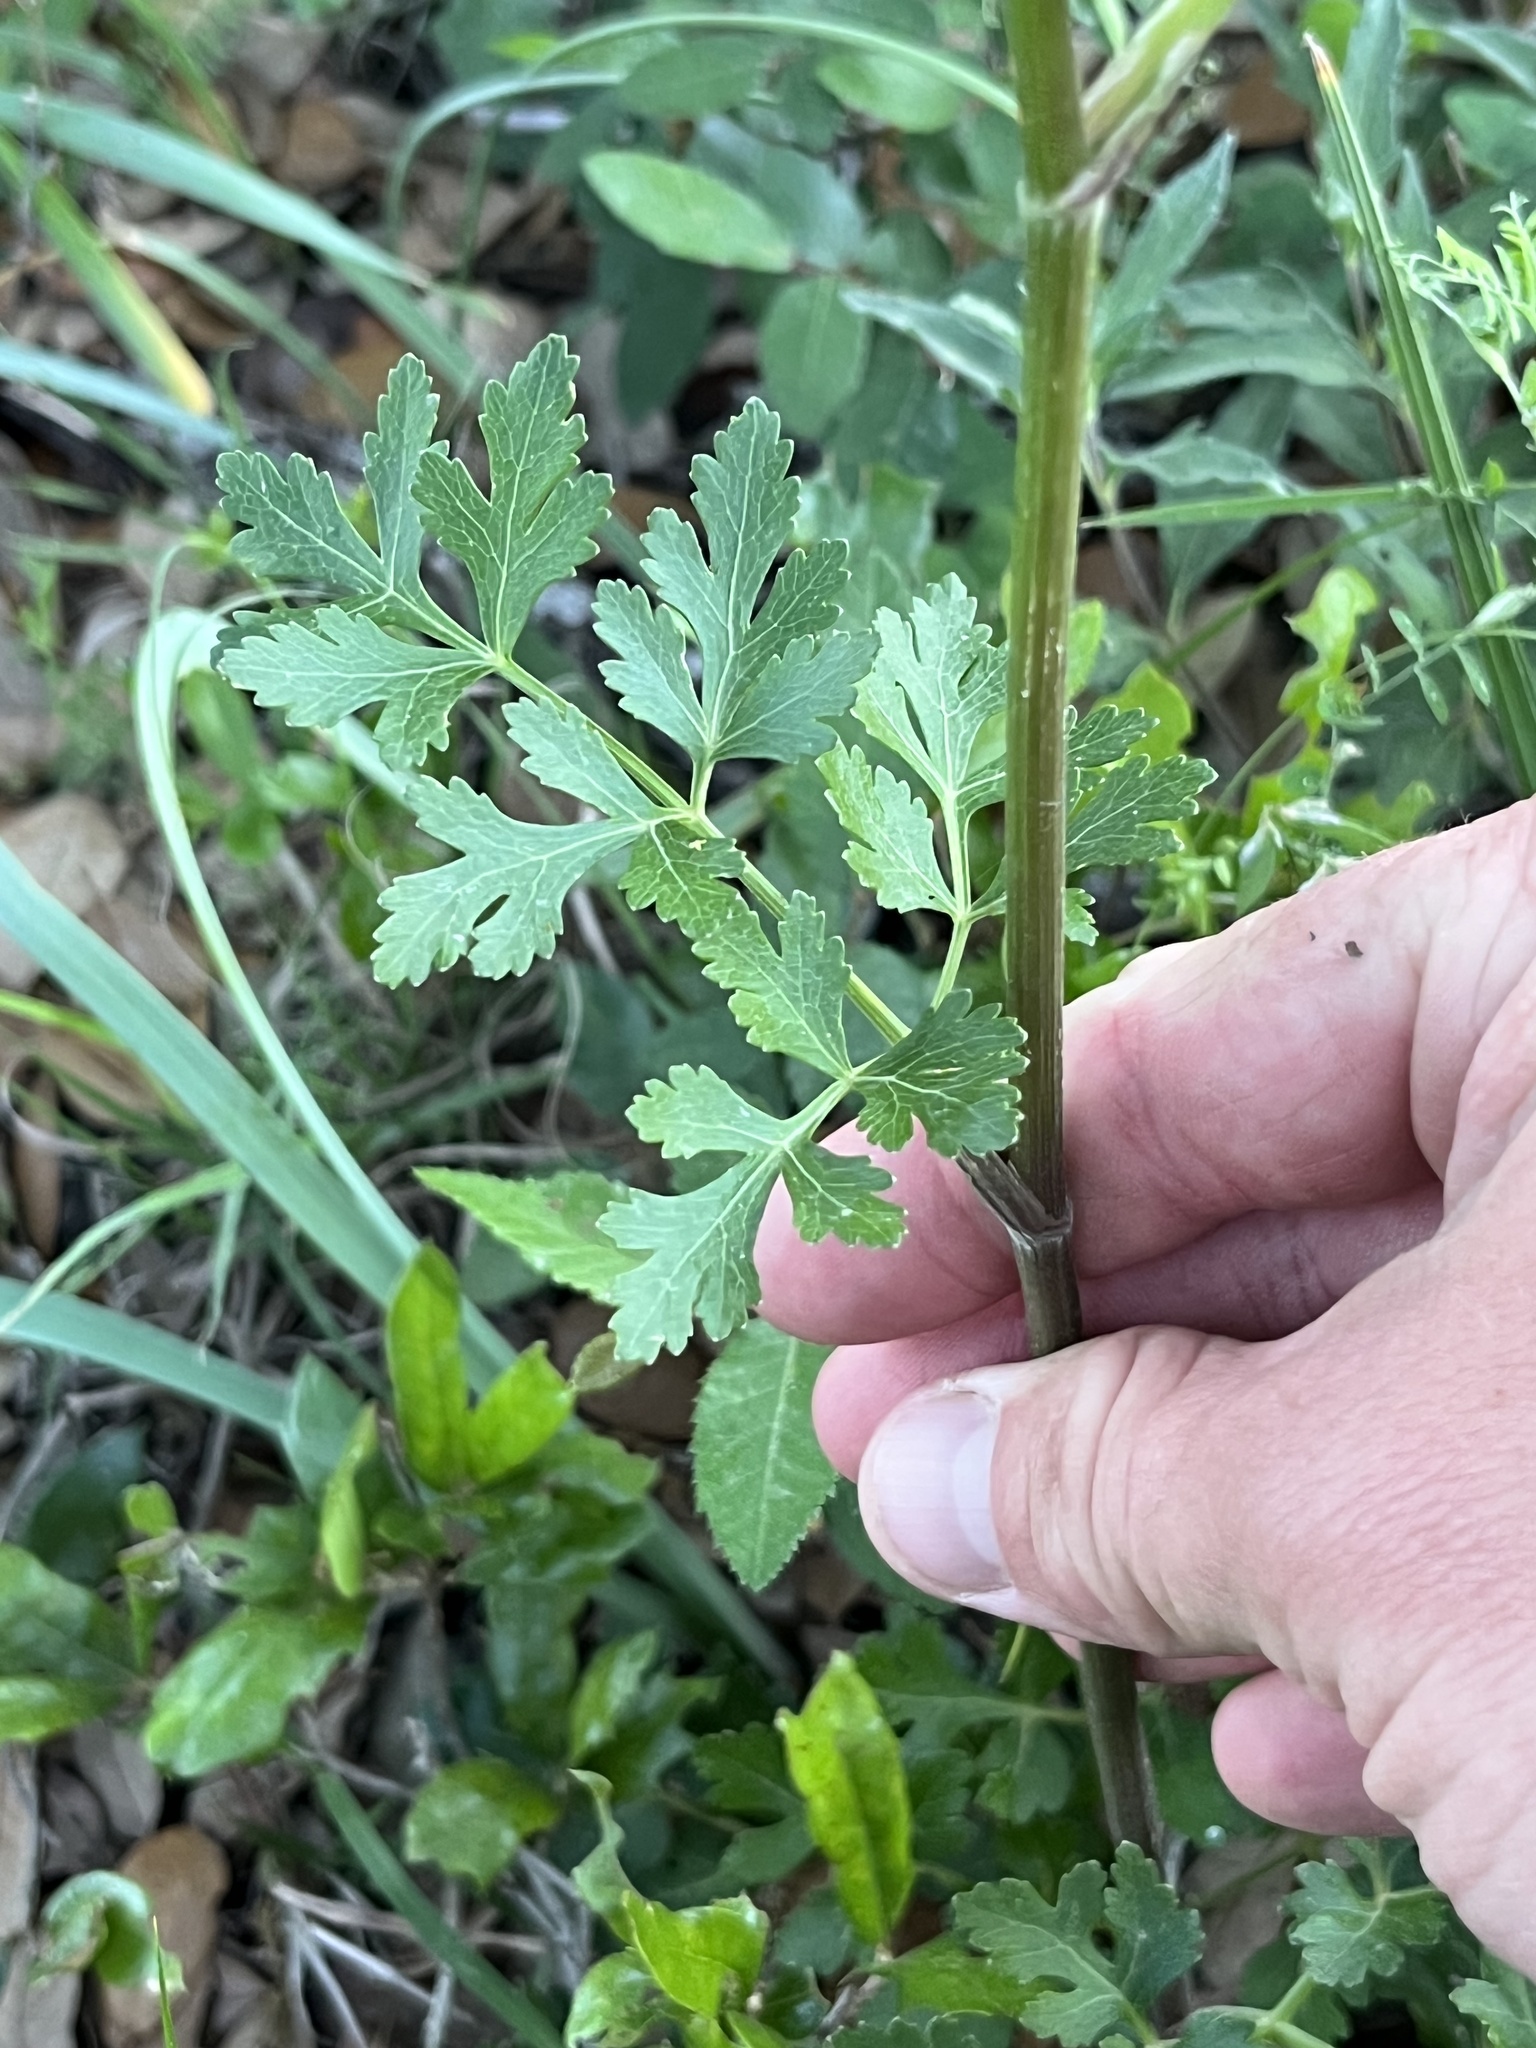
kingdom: Plantae
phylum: Tracheophyta
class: Magnoliopsida
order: Apiales
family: Apiaceae
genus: Polytaenia
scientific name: Polytaenia texana
